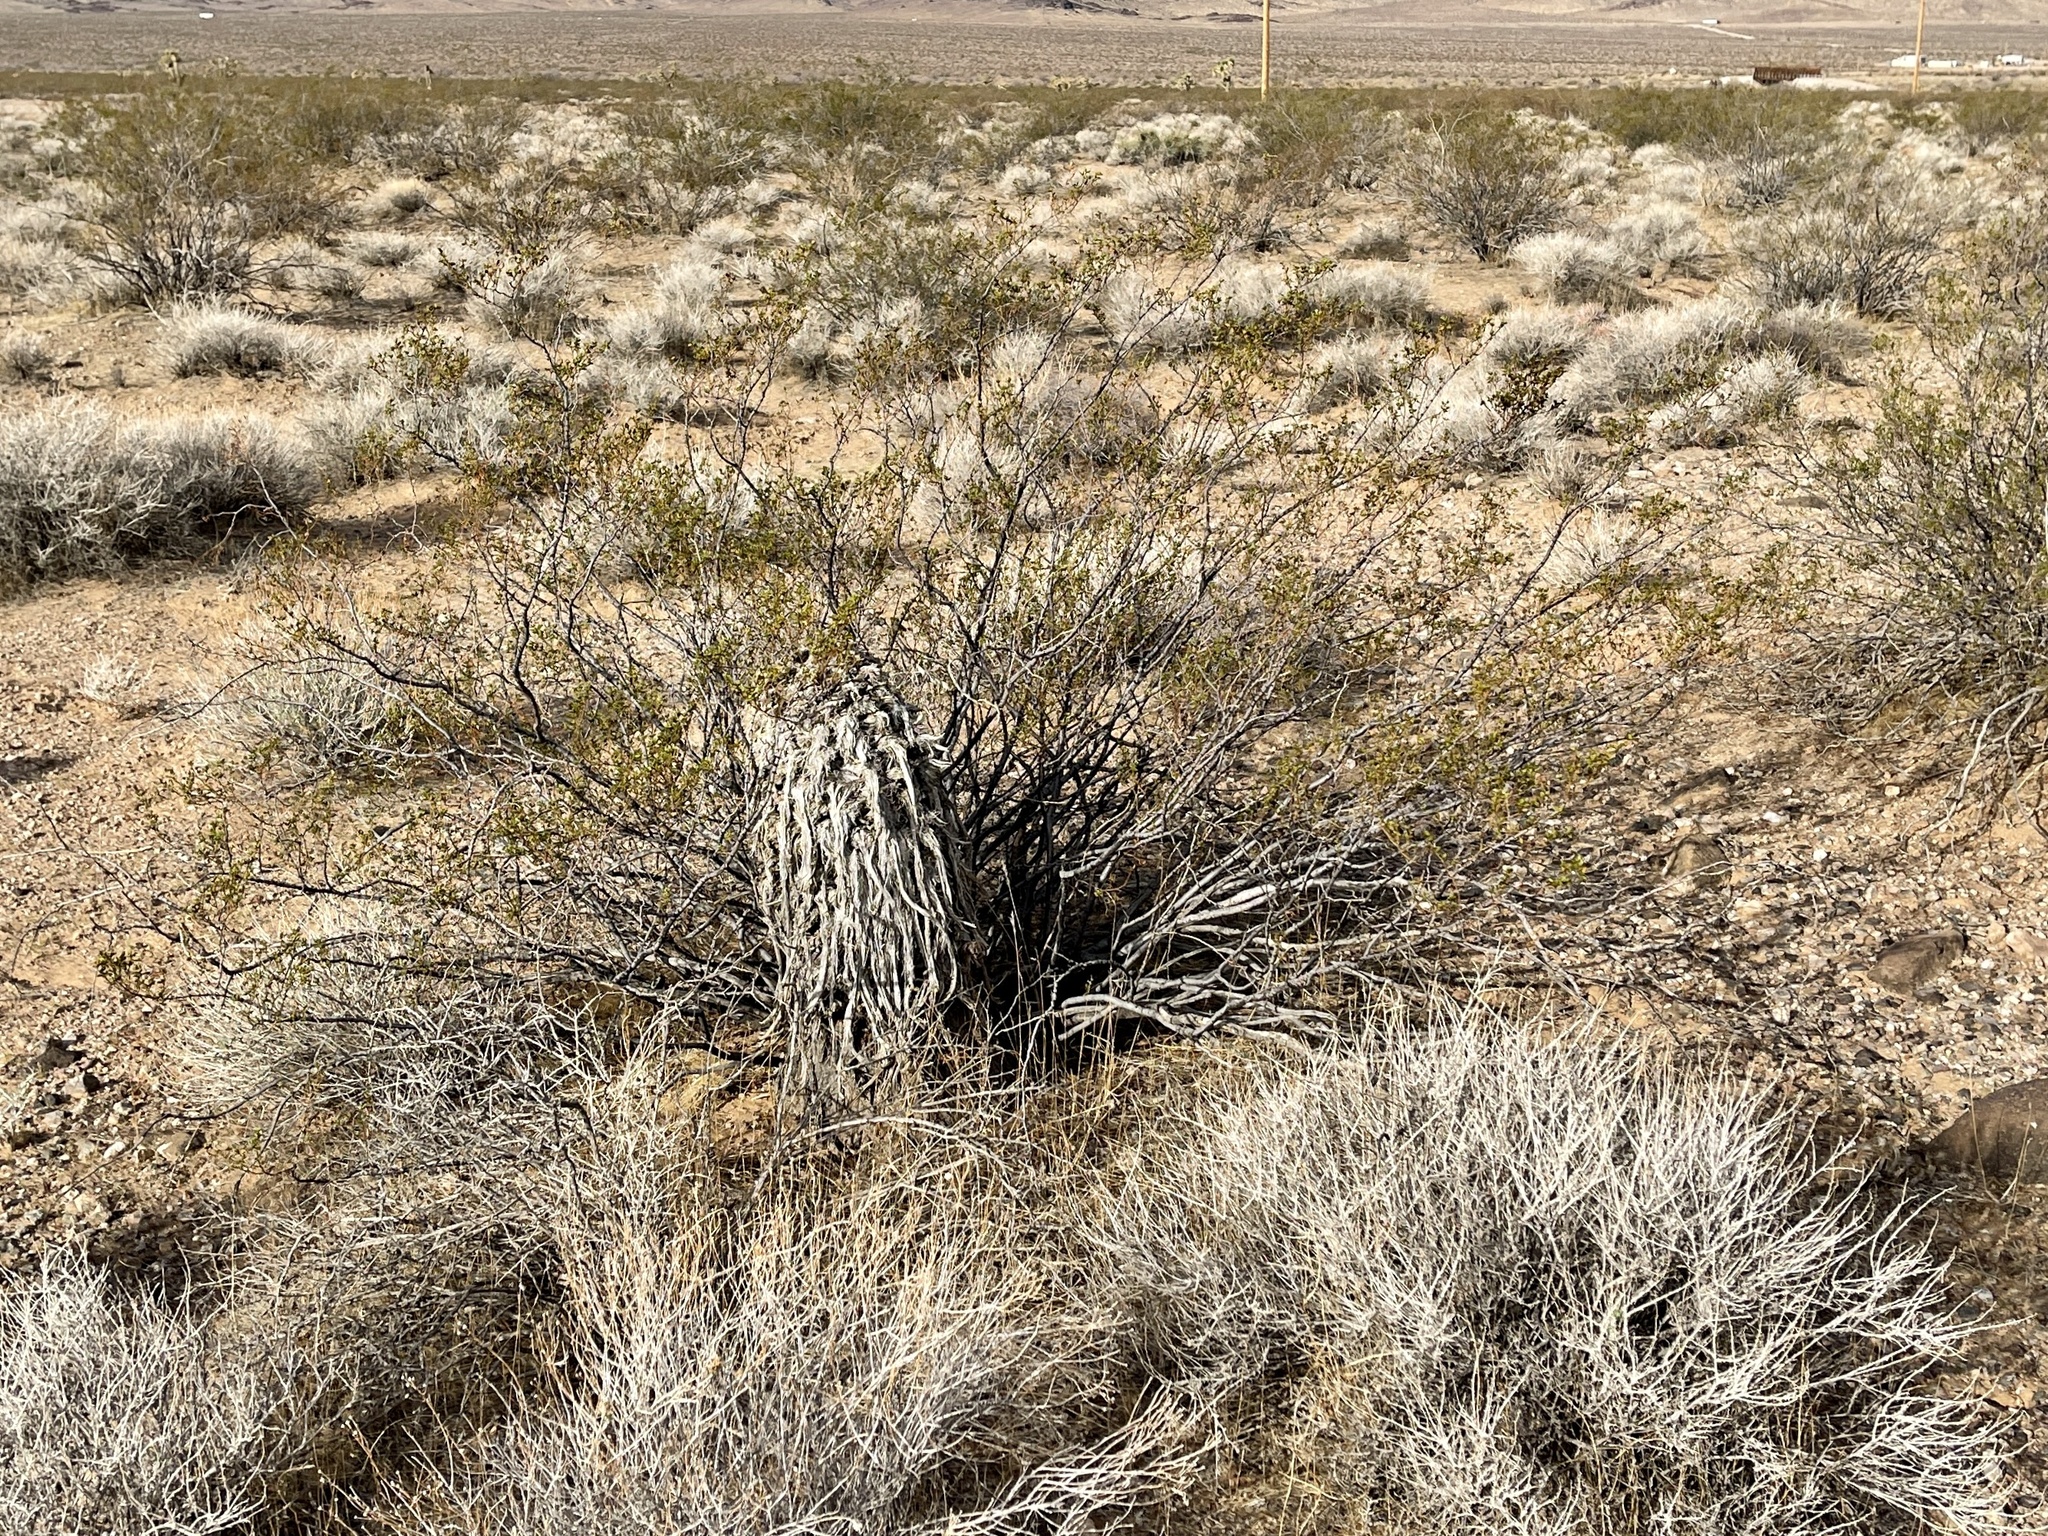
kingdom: Plantae
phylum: Tracheophyta
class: Magnoliopsida
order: Zygophyllales
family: Zygophyllaceae
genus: Larrea
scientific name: Larrea tridentata
